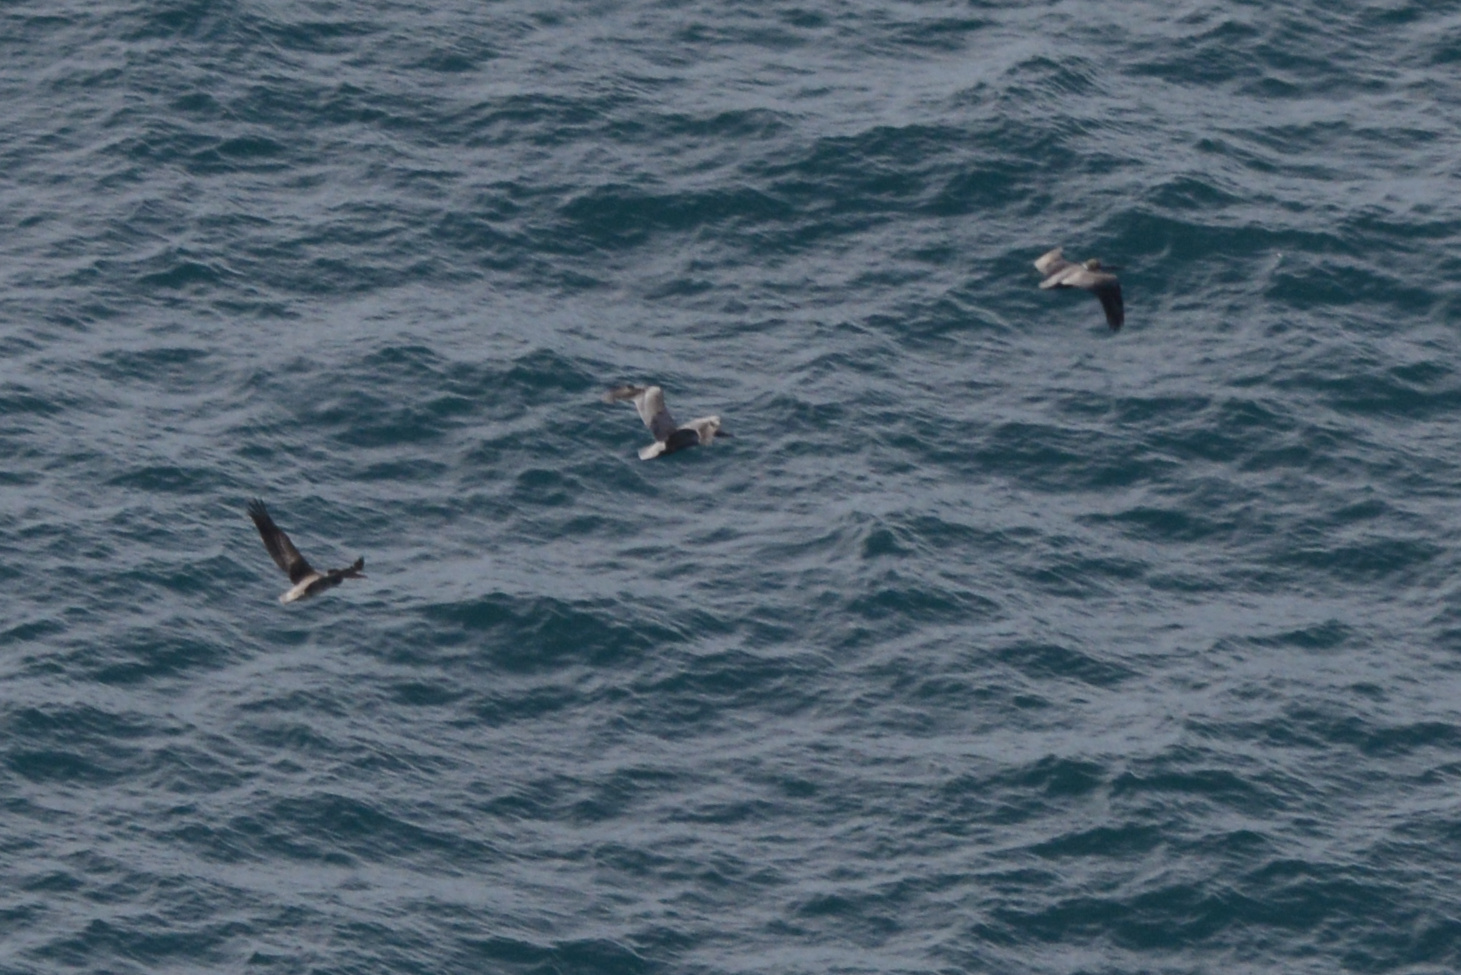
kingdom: Animalia
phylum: Chordata
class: Aves
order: Pelecaniformes
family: Pelecanidae
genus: Pelecanus
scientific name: Pelecanus occidentalis
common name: Brown pelican
